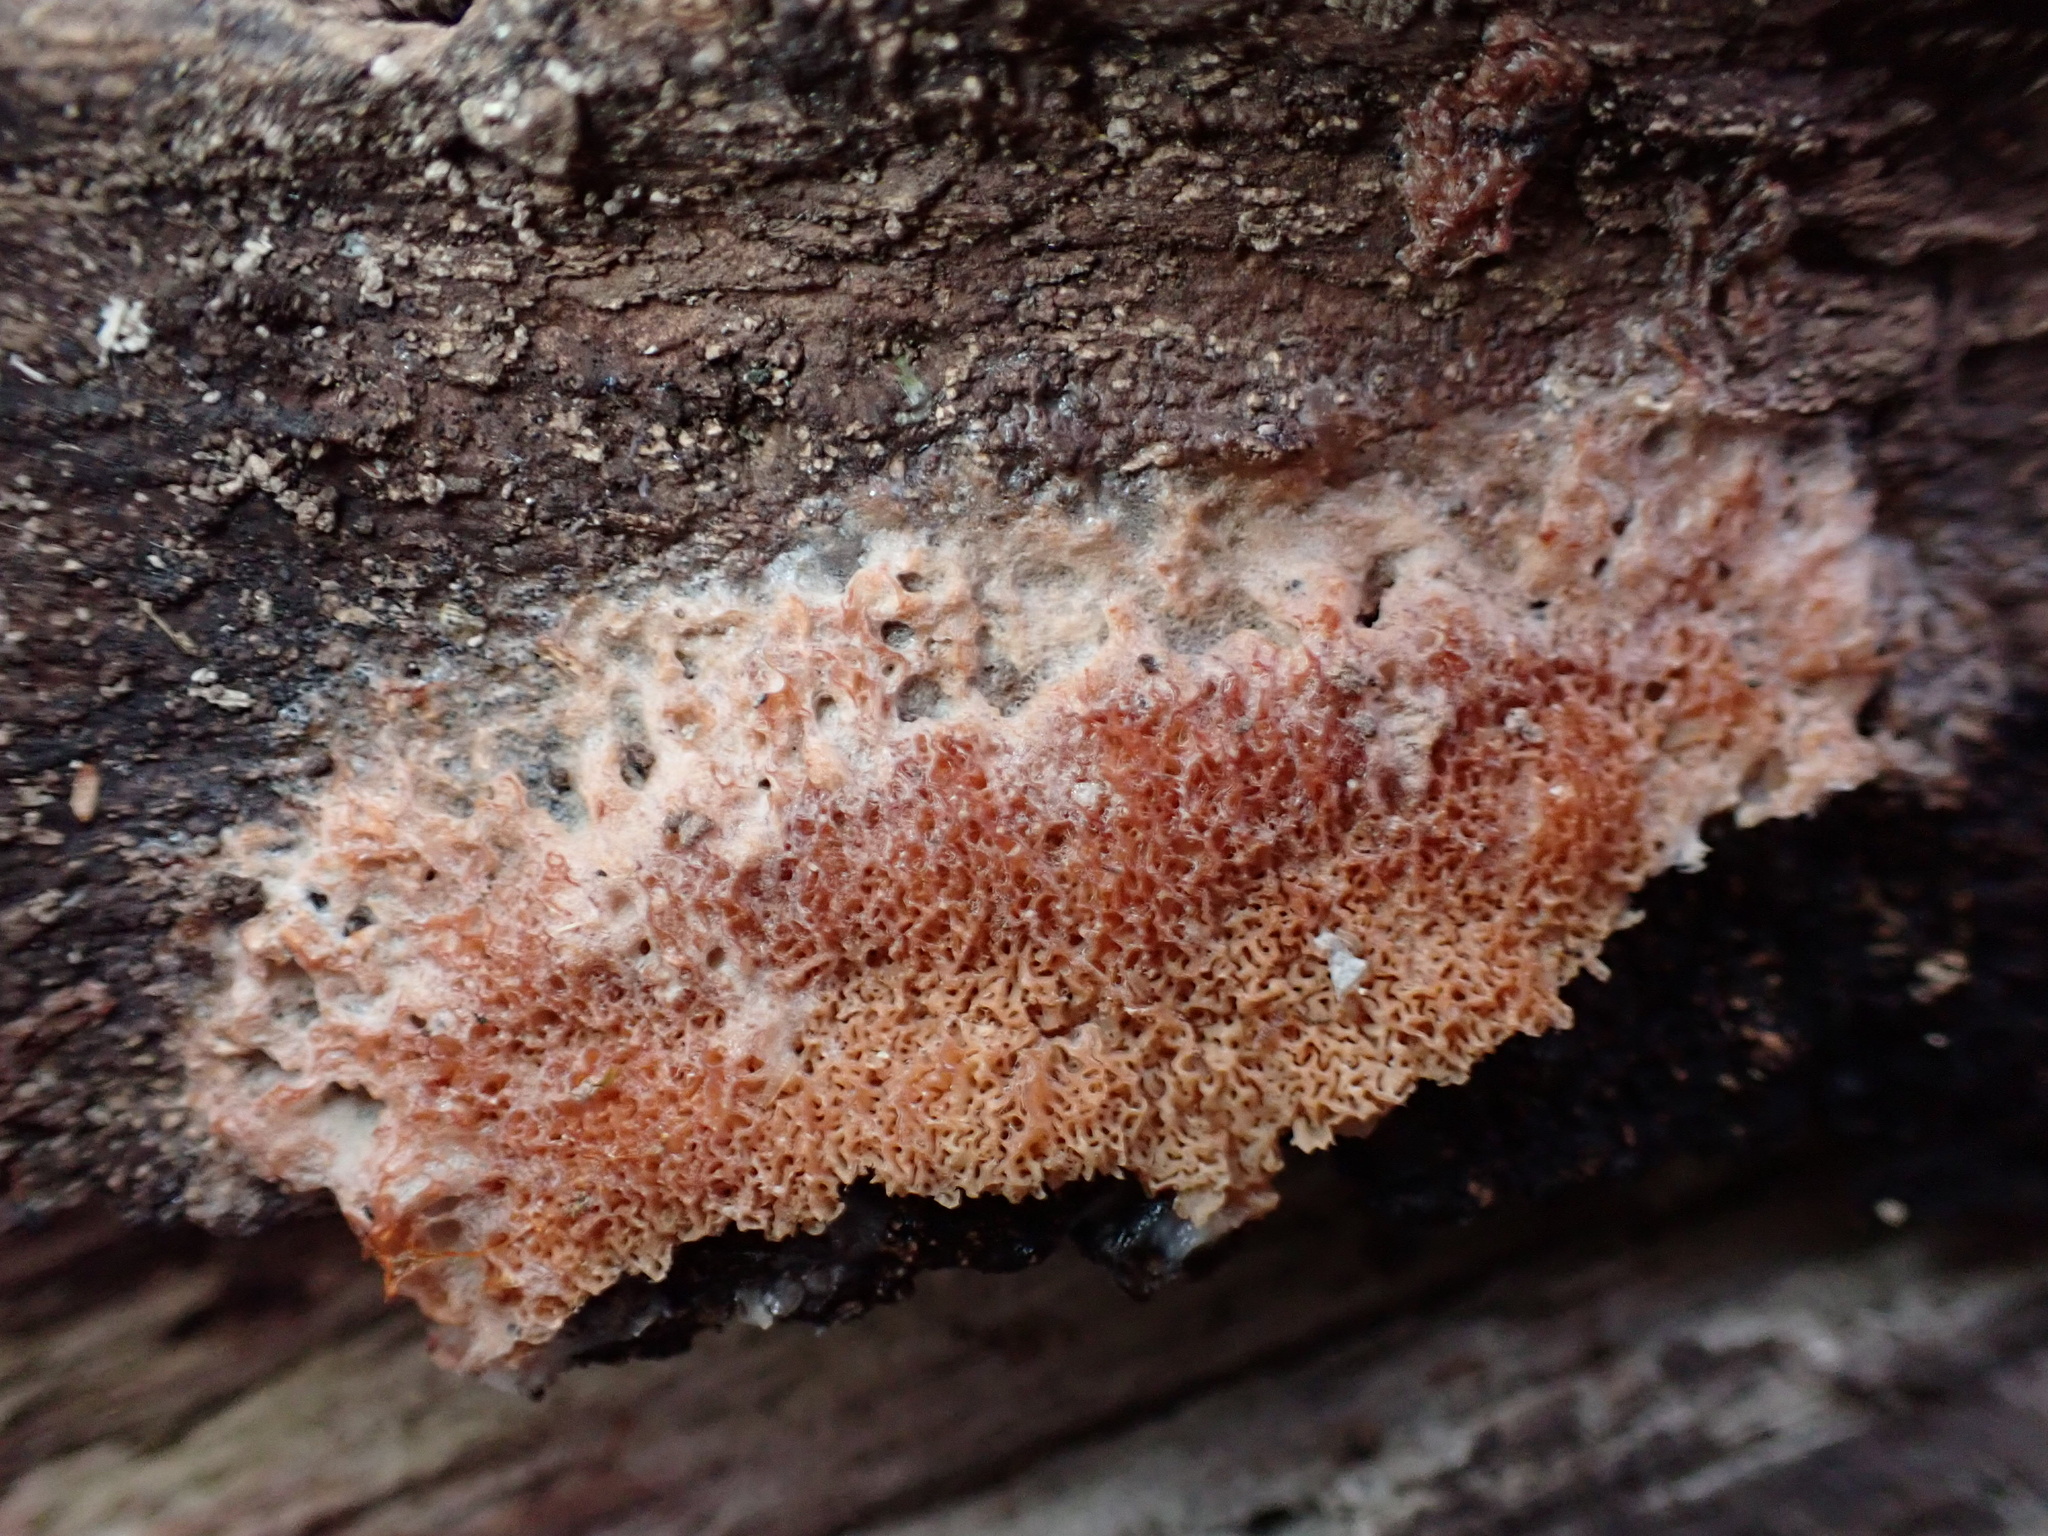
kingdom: Fungi
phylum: Basidiomycota
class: Agaricomycetes
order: Polyporales
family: Meruliaceae
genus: Phlebia
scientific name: Phlebia tremellosa
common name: Jelly rot
